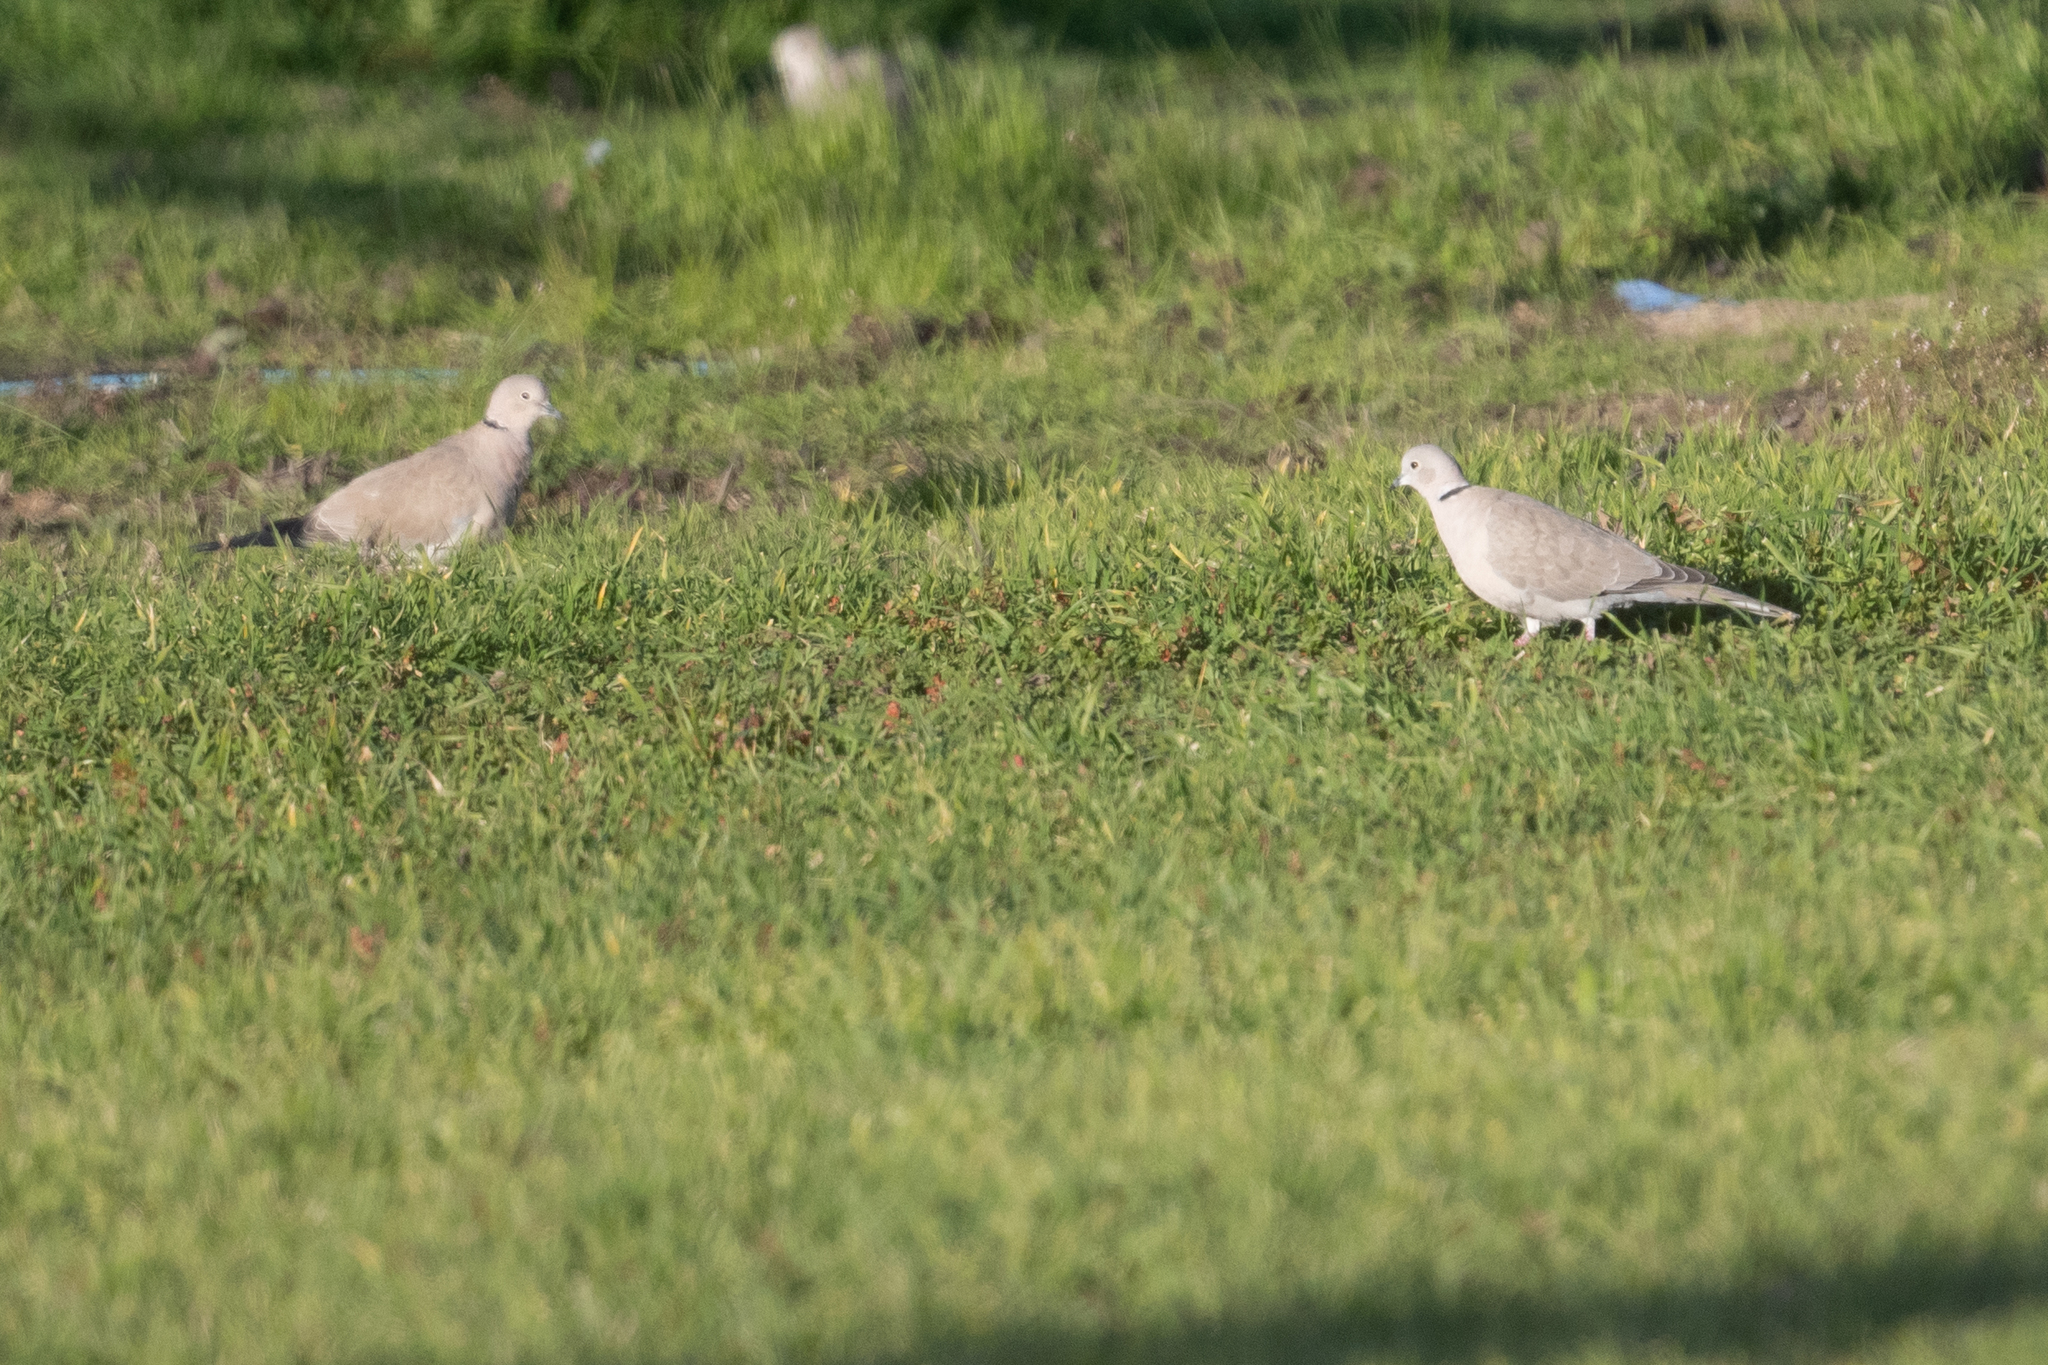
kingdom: Animalia
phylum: Chordata
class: Aves
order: Columbiformes
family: Columbidae
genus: Streptopelia
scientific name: Streptopelia decaocto
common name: Eurasian collared dove
